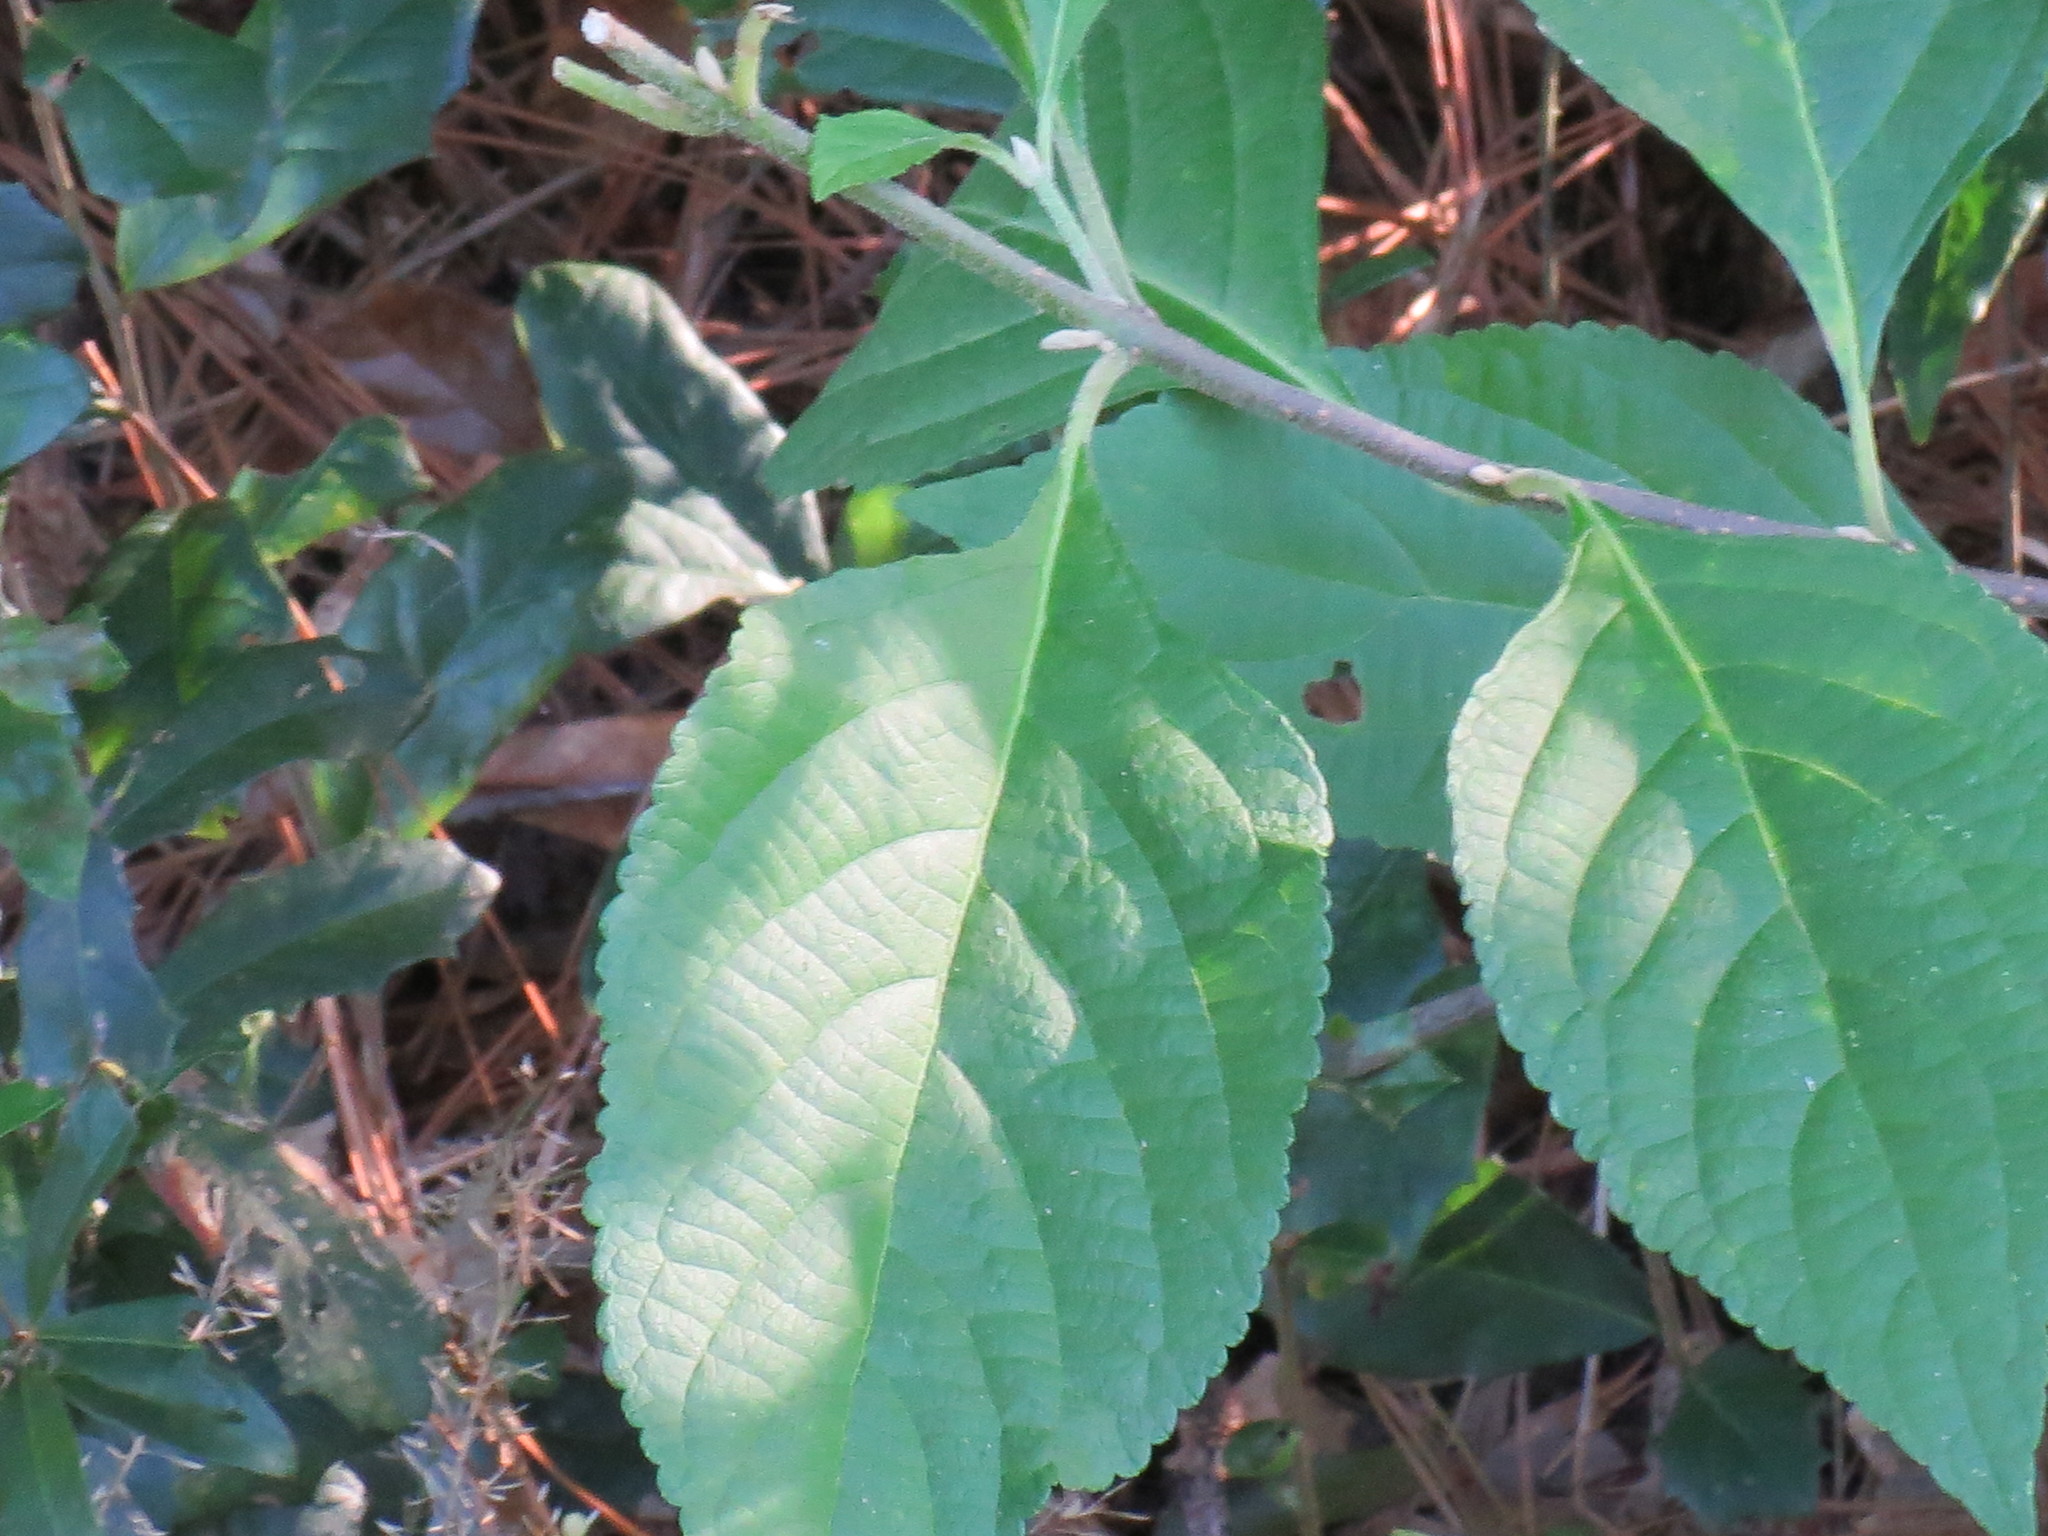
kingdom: Plantae
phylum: Tracheophyta
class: Magnoliopsida
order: Lamiales
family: Lamiaceae
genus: Callicarpa
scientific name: Callicarpa americana
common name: American beautyberry
